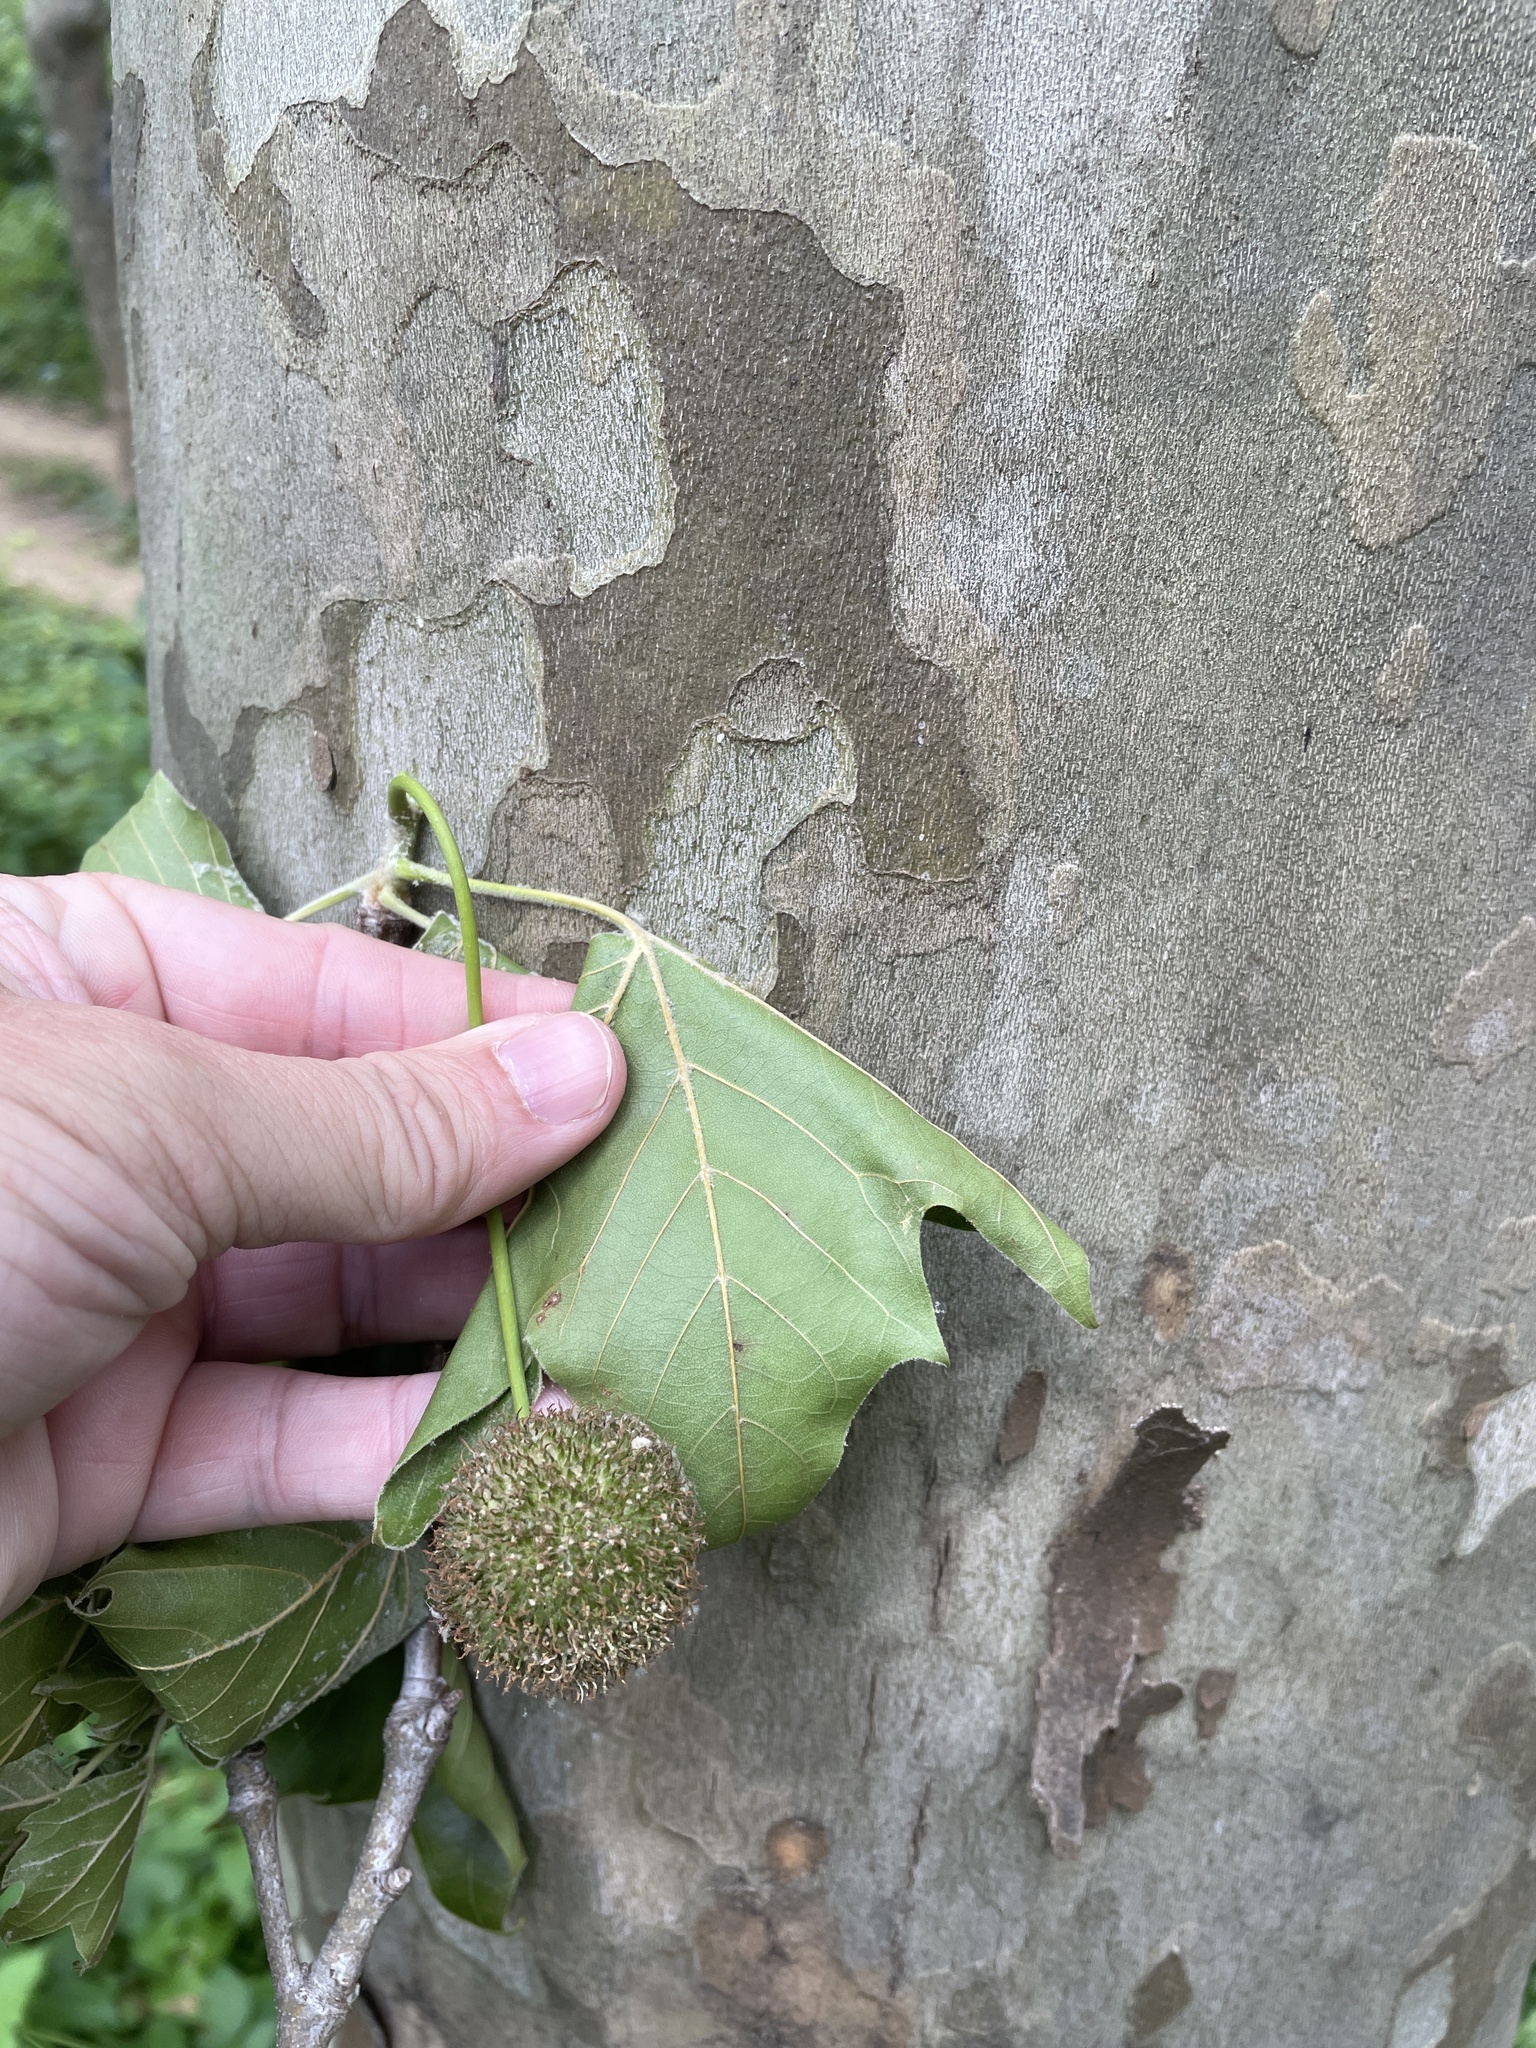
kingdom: Plantae
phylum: Tracheophyta
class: Magnoliopsida
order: Proteales
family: Platanaceae
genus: Platanus
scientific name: Platanus occidentalis
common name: American sycamore
